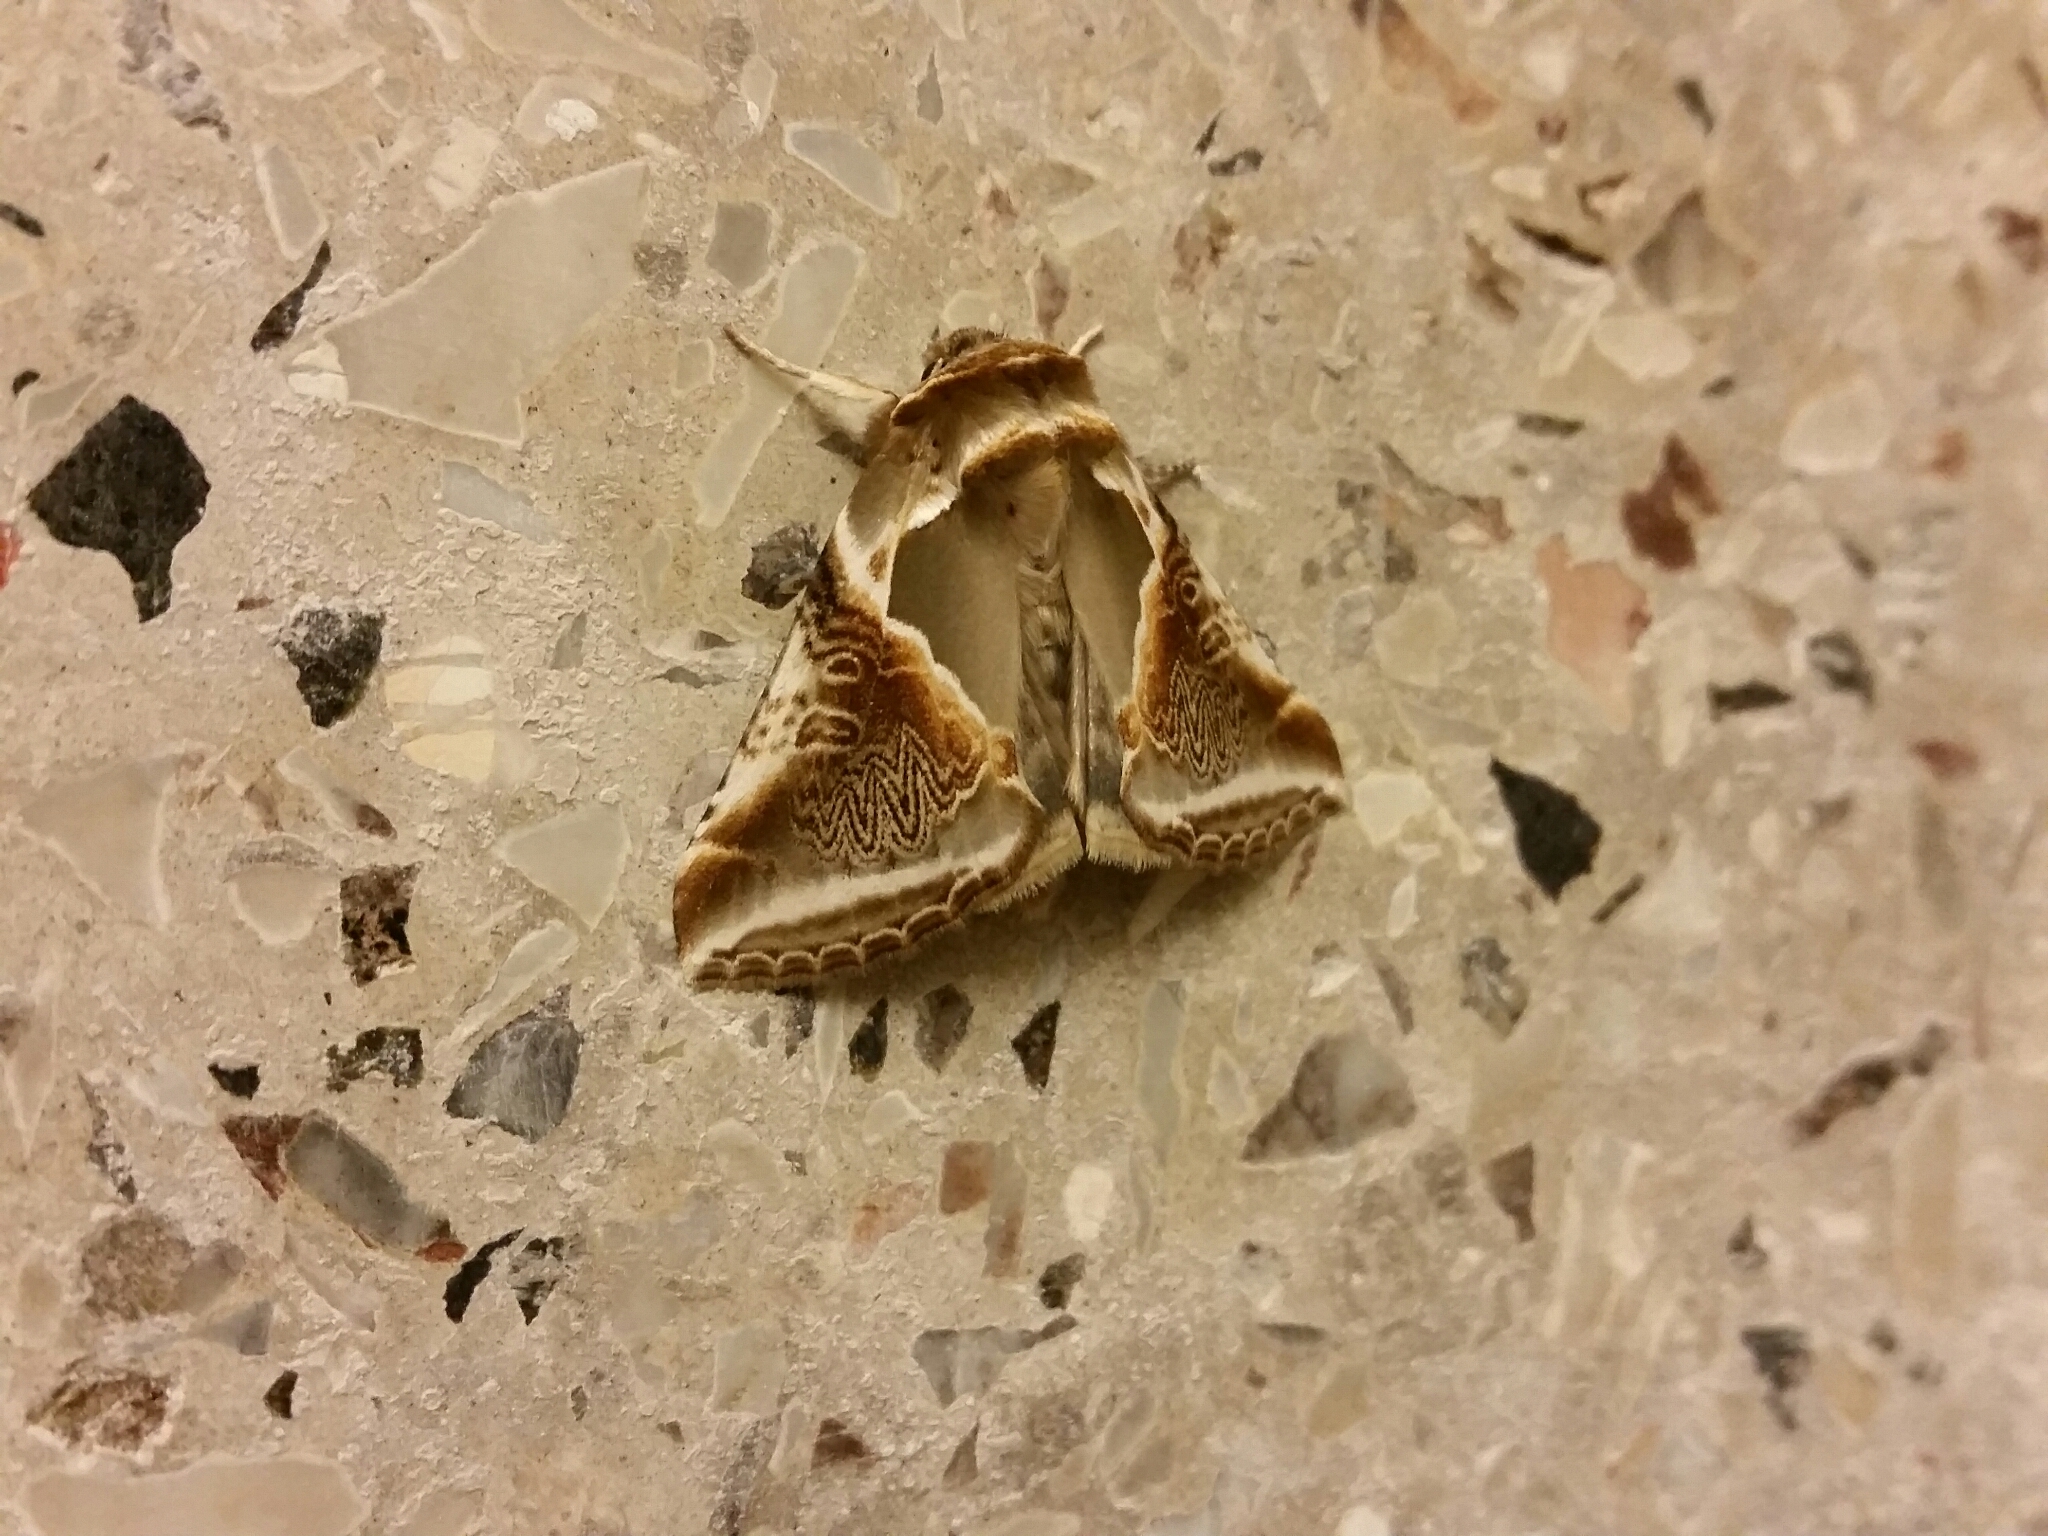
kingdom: Animalia
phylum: Arthropoda
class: Insecta
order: Lepidoptera
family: Drepanidae
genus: Habrosyne
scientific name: Habrosyne pyritoides
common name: Buff arches
